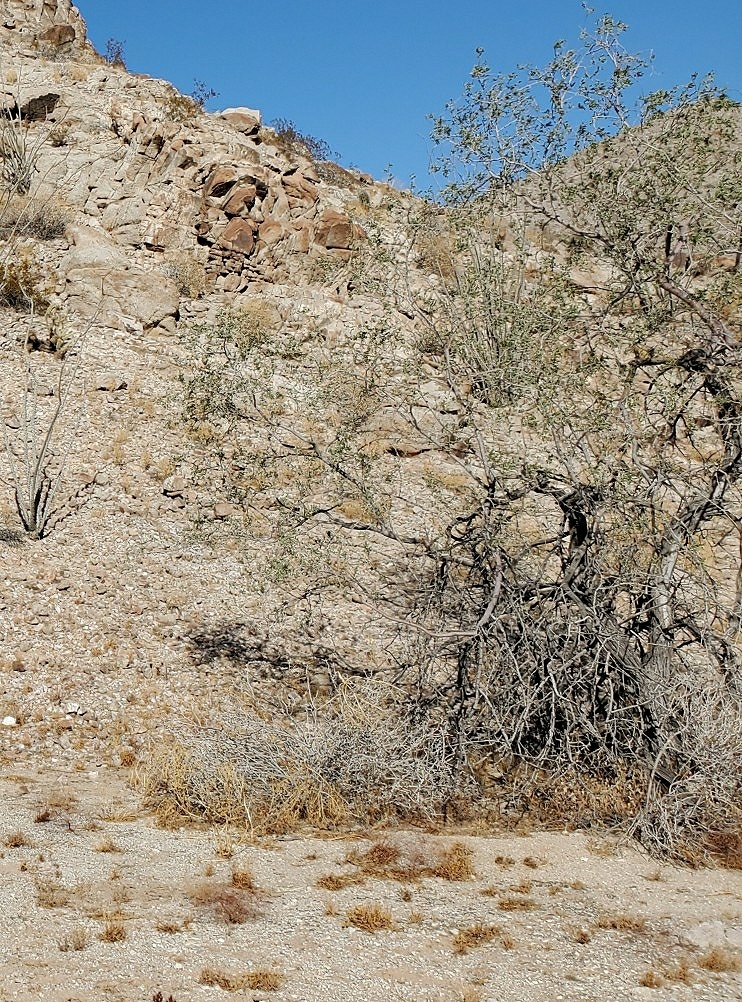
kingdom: Plantae
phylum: Tracheophyta
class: Magnoliopsida
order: Fabales
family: Fabaceae
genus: Olneya
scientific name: Olneya tesota
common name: Desert ironwood
